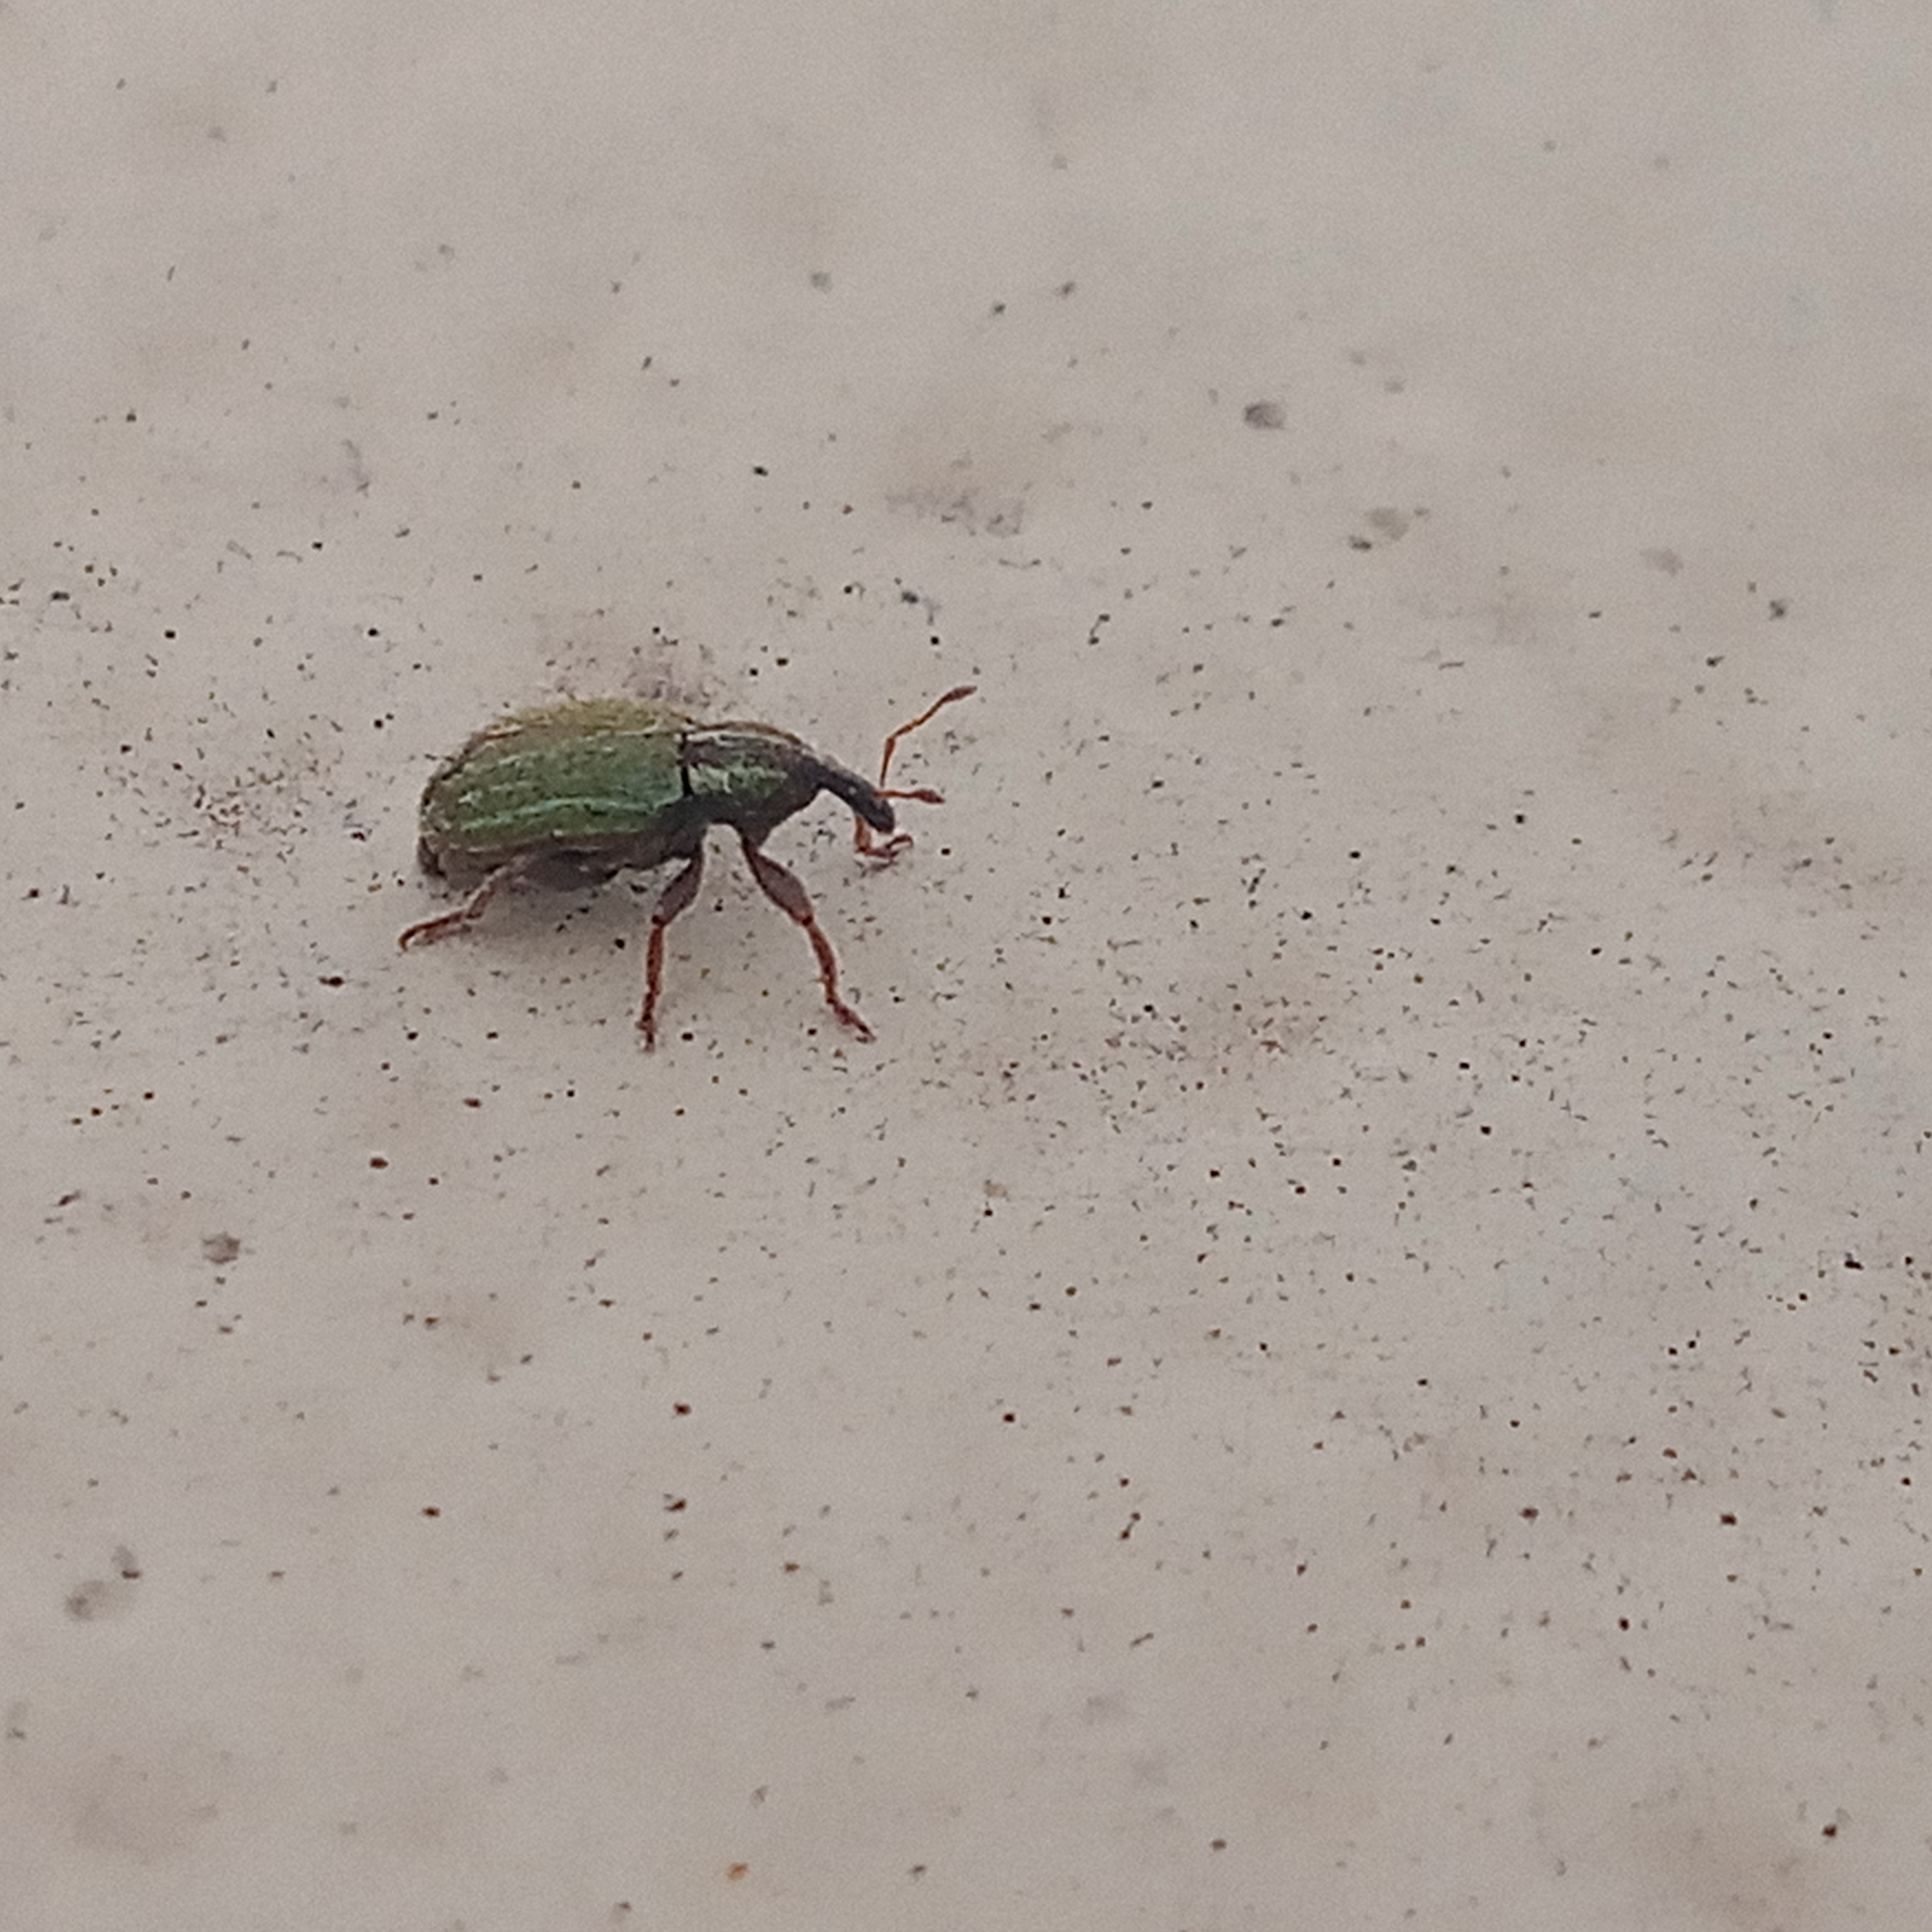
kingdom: Animalia
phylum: Arthropoda
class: Insecta
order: Coleoptera
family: Curculionidae
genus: Hypera
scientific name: Hypera nigrirostris
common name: Black-beaked green weevil
